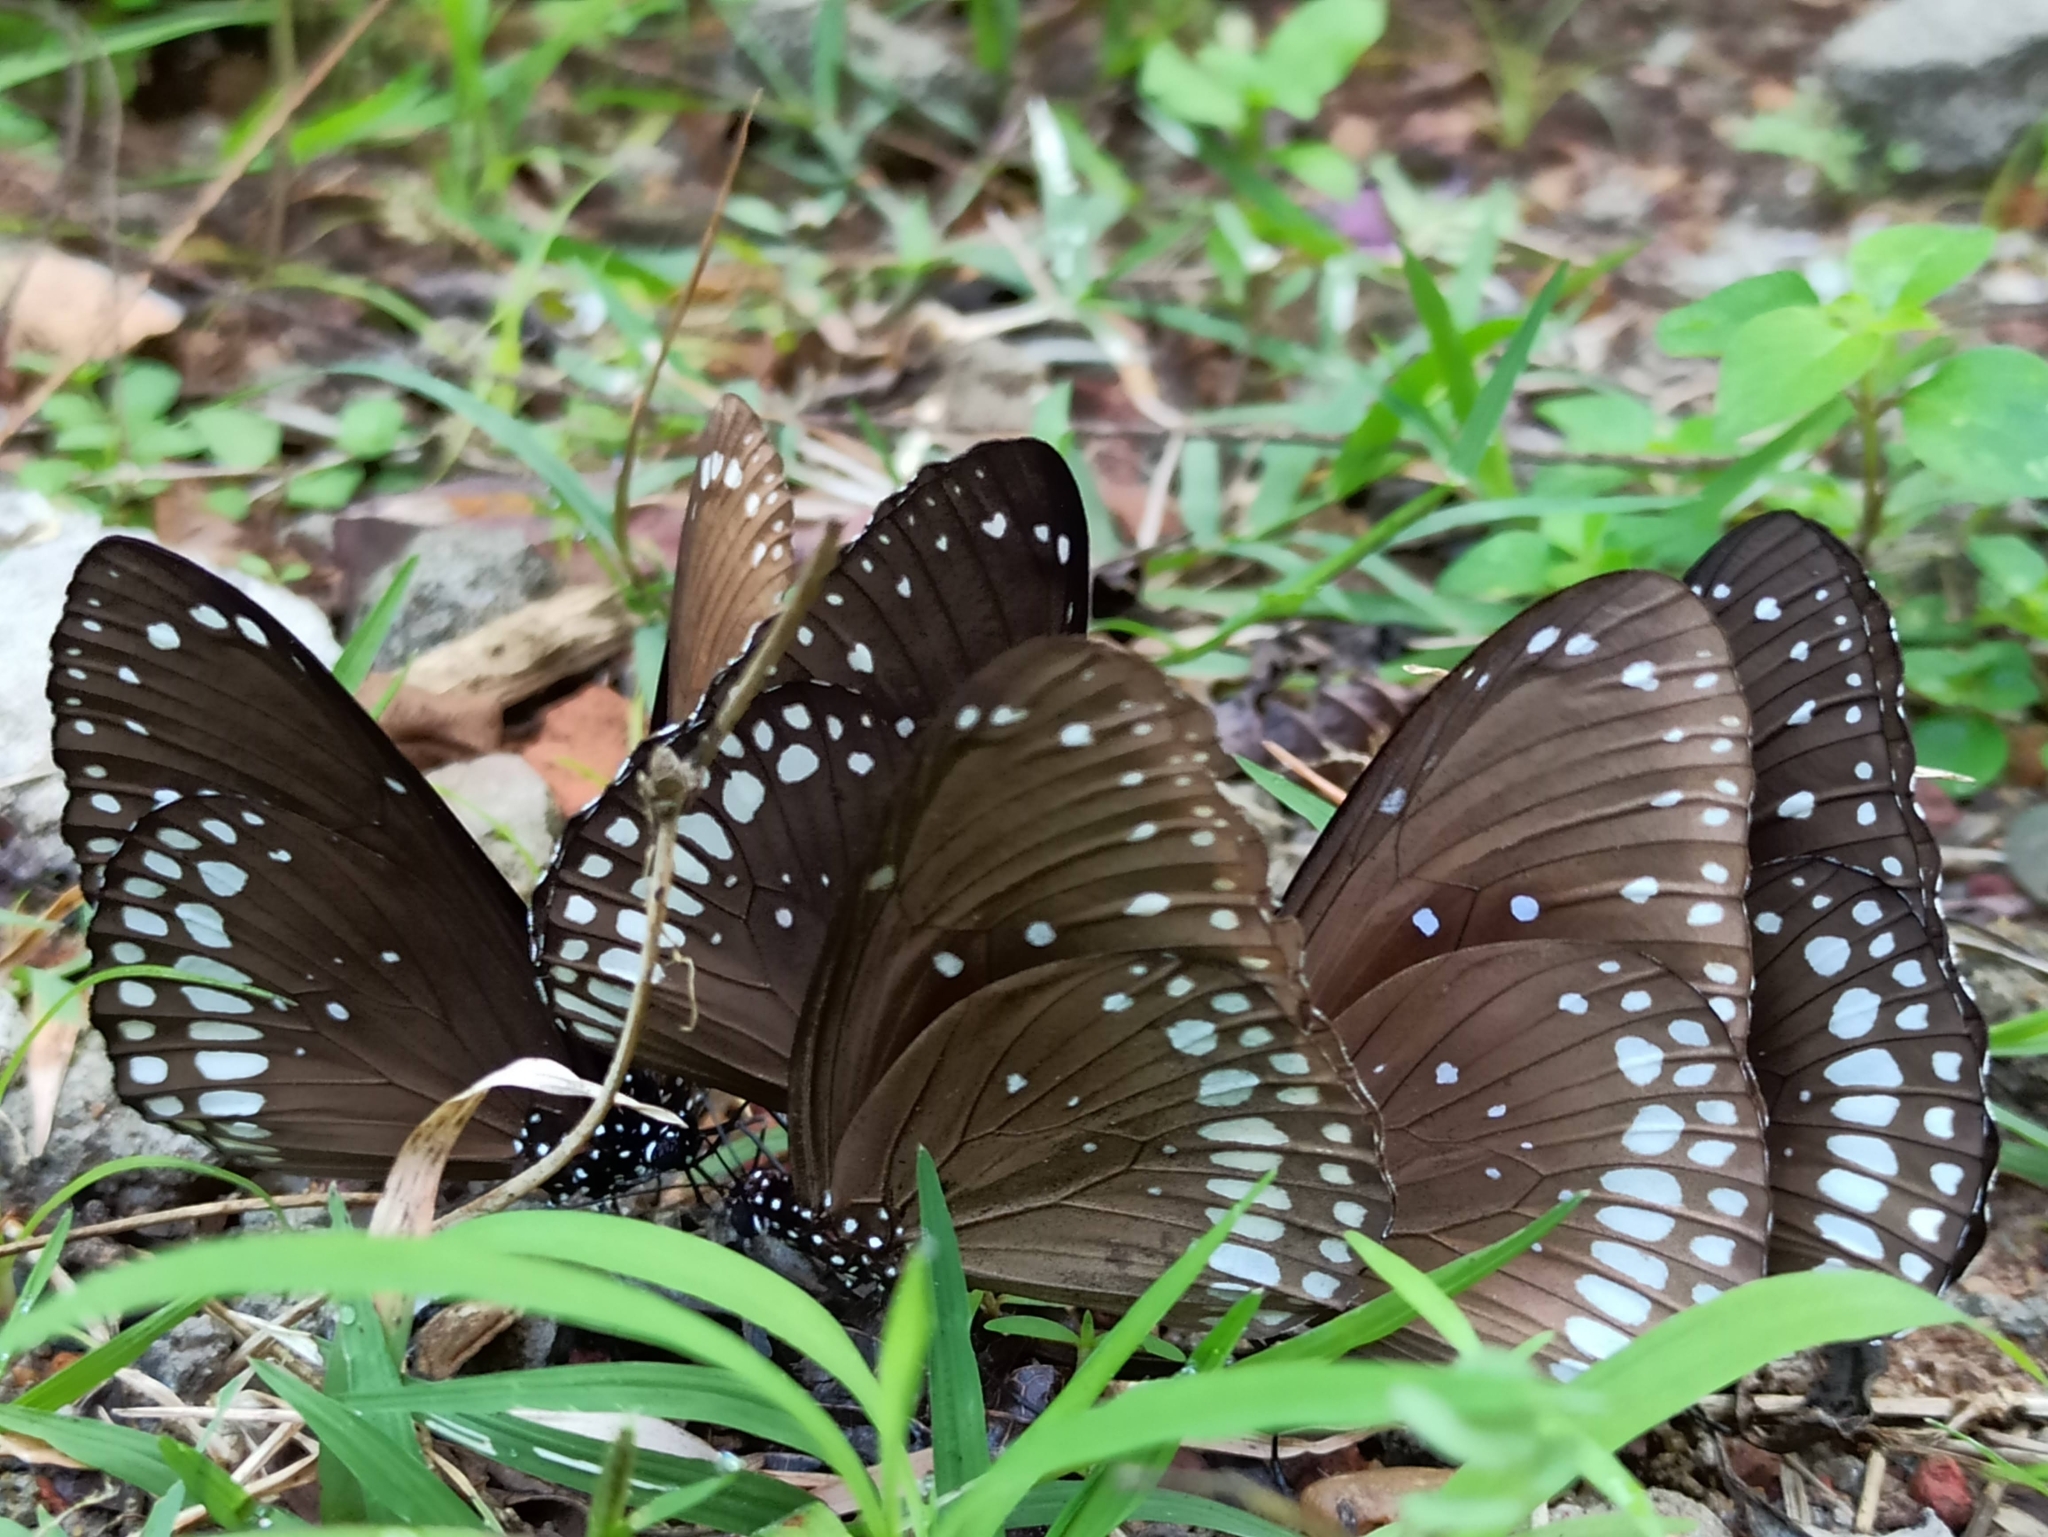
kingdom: Animalia
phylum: Arthropoda
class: Insecta
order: Lepidoptera
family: Nymphalidae
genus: Euploea
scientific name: Euploea core
